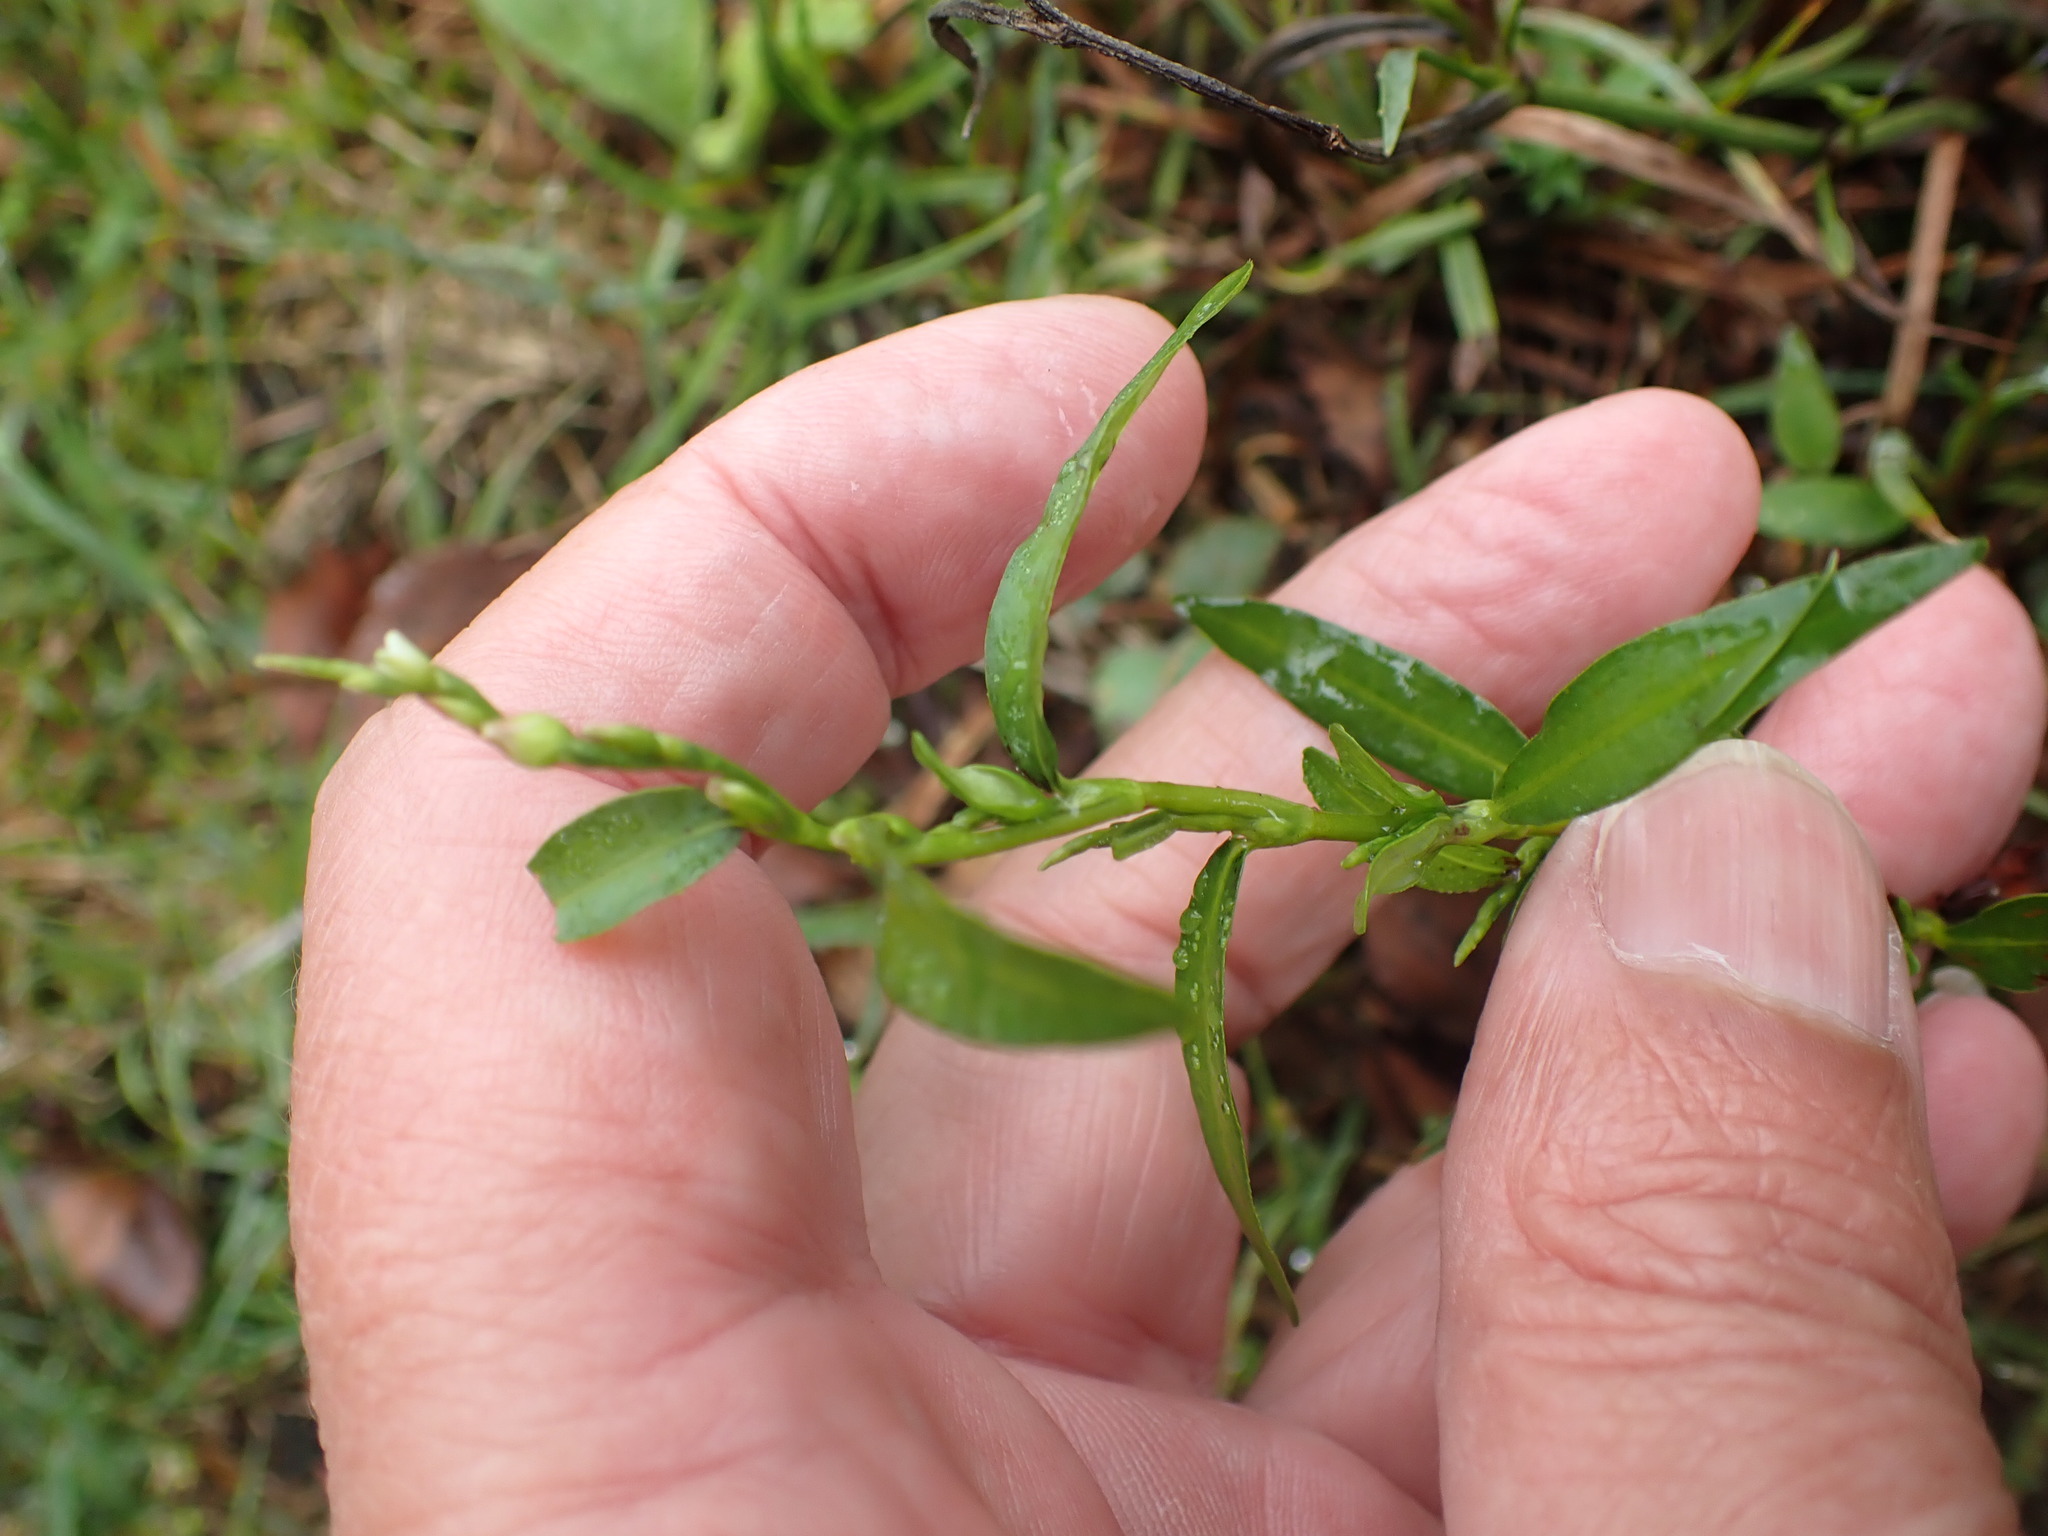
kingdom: Plantae
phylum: Tracheophyta
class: Magnoliopsida
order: Caryophyllales
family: Polygonaceae
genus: Persicaria
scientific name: Persicaria hydropiper
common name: Water-pepper
